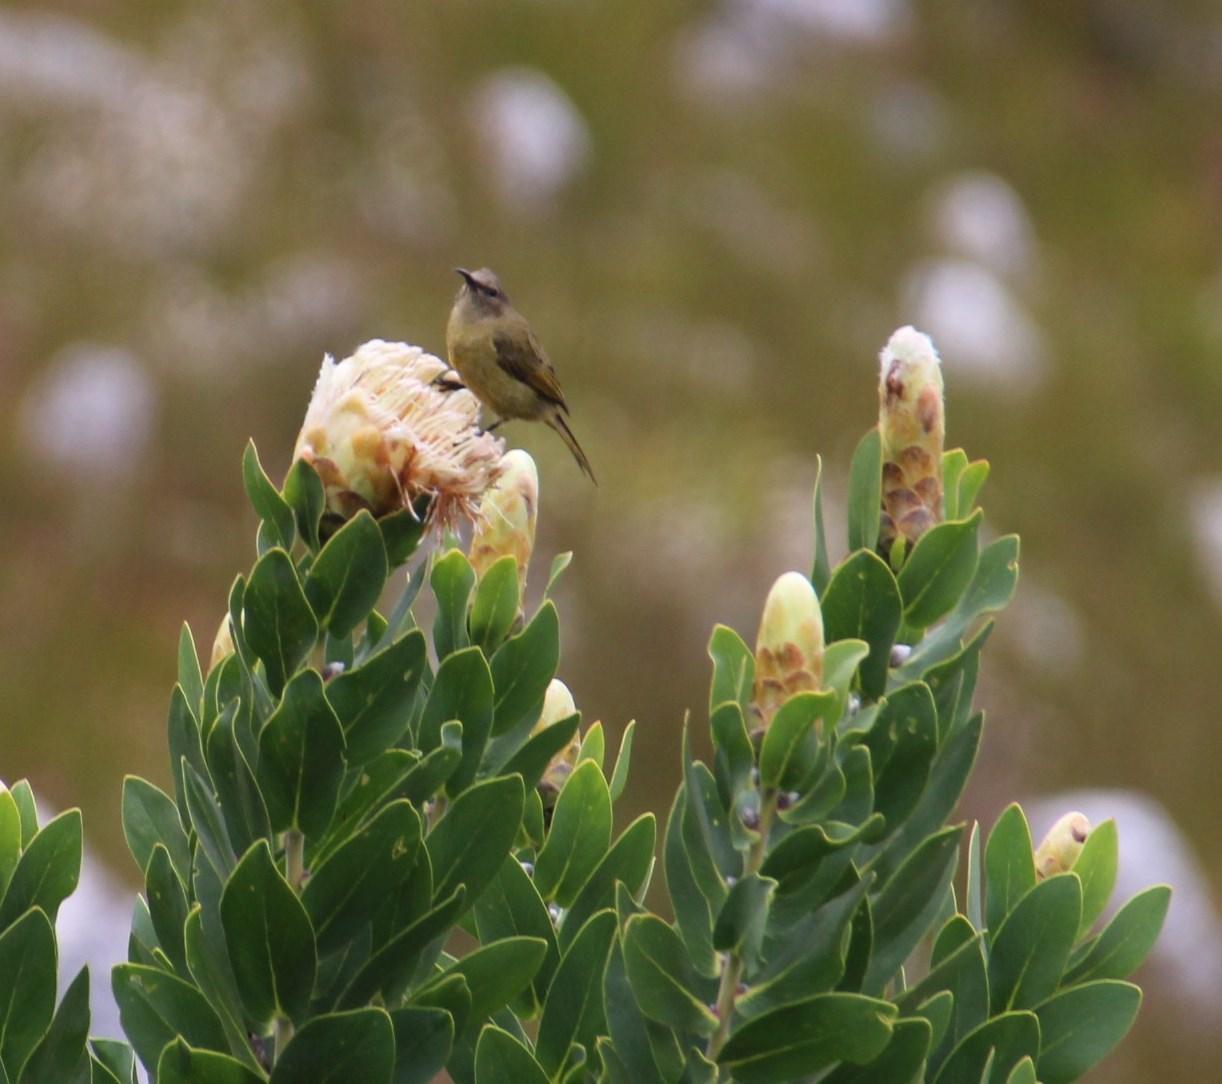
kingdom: Plantae
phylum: Tracheophyta
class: Magnoliopsida
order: Proteales
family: Proteaceae
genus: Protea
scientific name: Protea lacticolor
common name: Hottentot sugarbush
